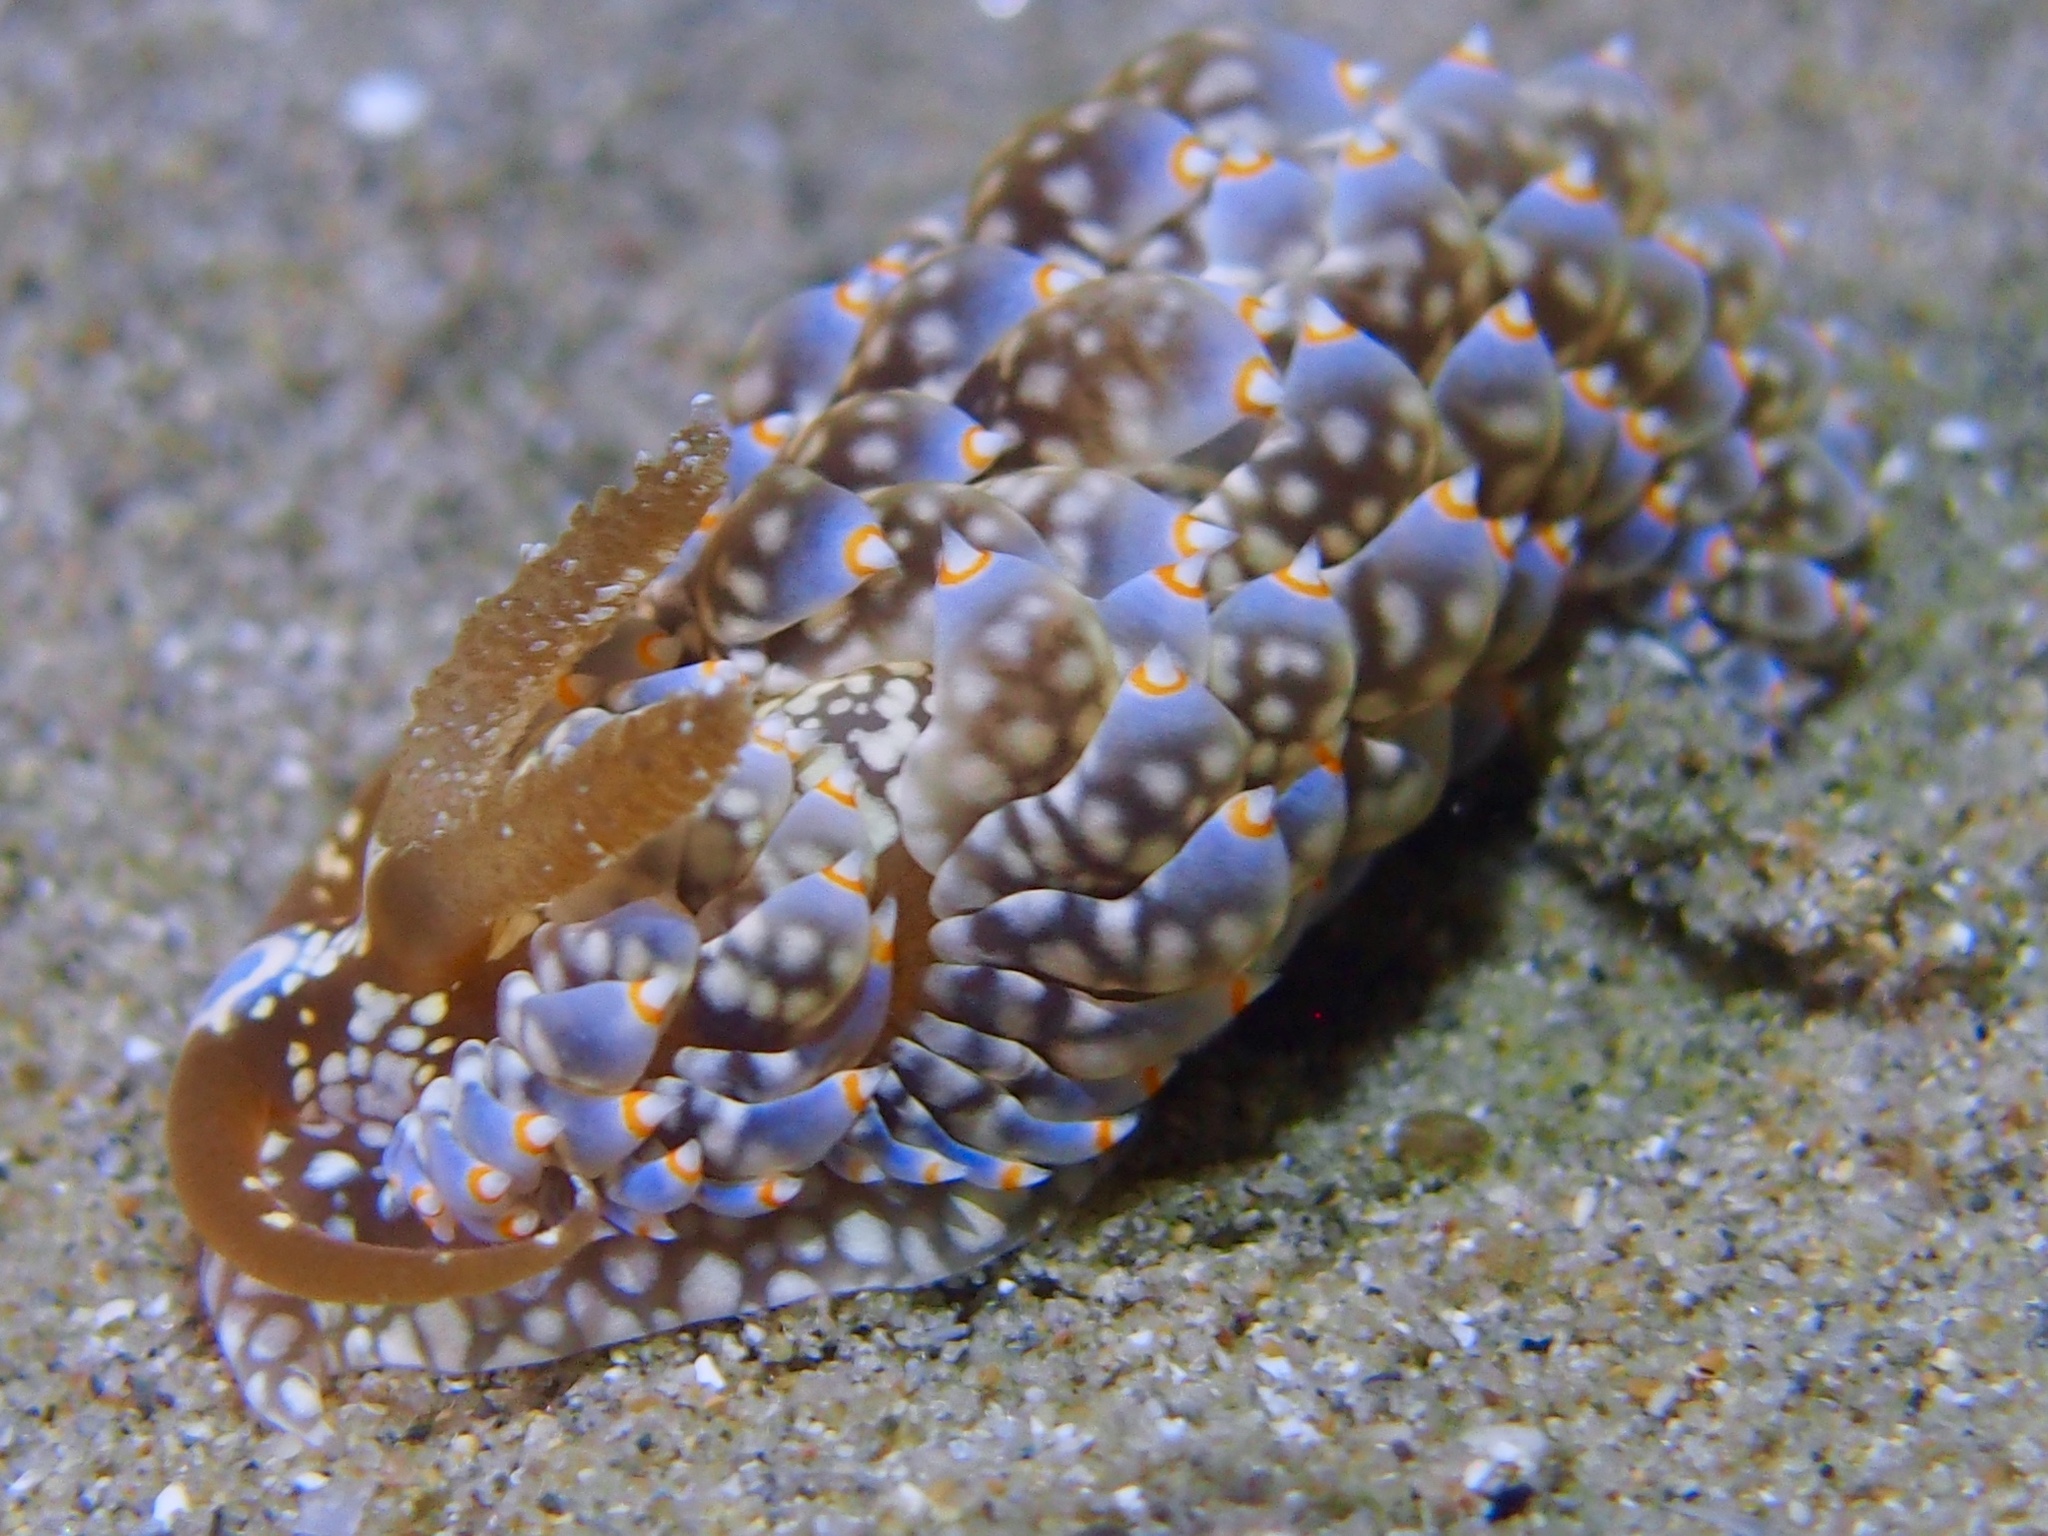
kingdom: Animalia
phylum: Mollusca
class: Gastropoda
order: Nudibranchia
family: Aeolidiidae
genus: Baeolidia
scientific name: Baeolidia australis
